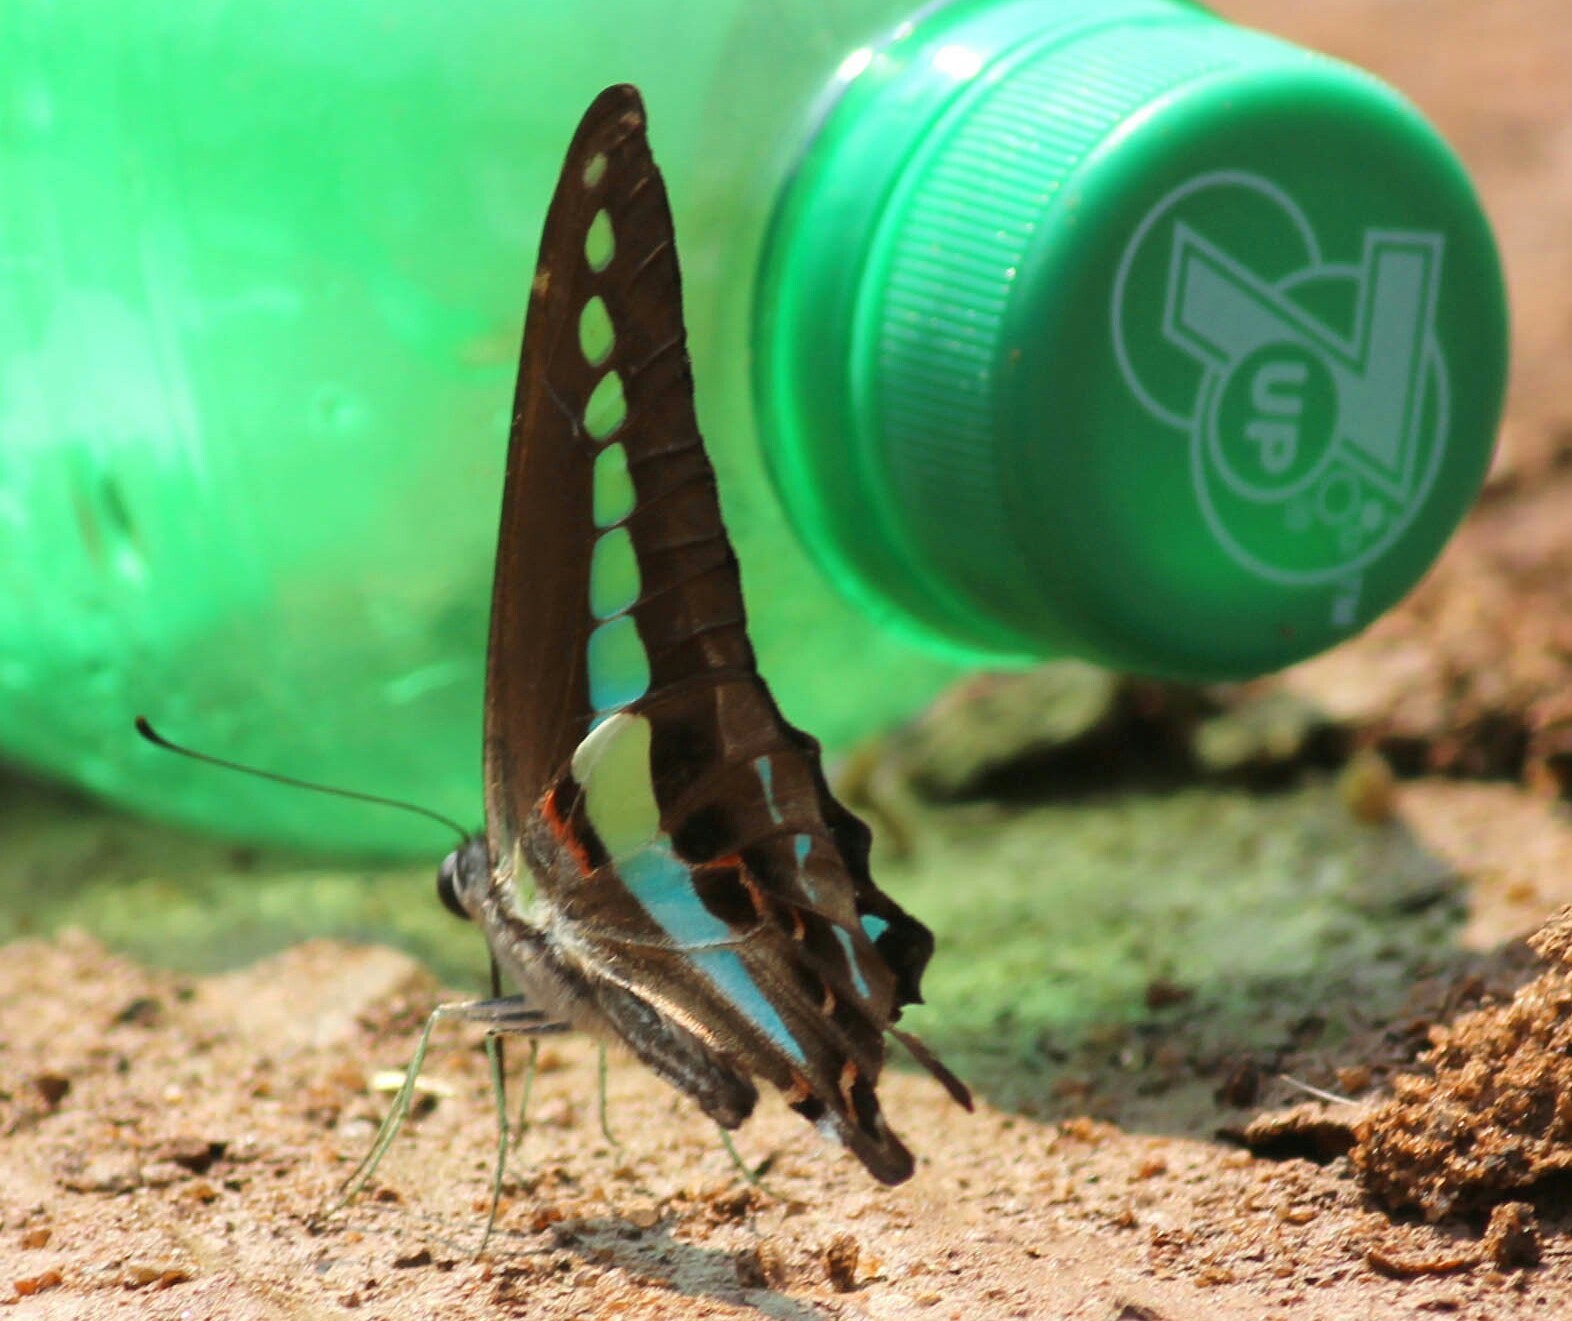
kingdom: Animalia
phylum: Arthropoda
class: Insecta
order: Lepidoptera
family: Papilionidae
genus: Graphium
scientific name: Graphium
